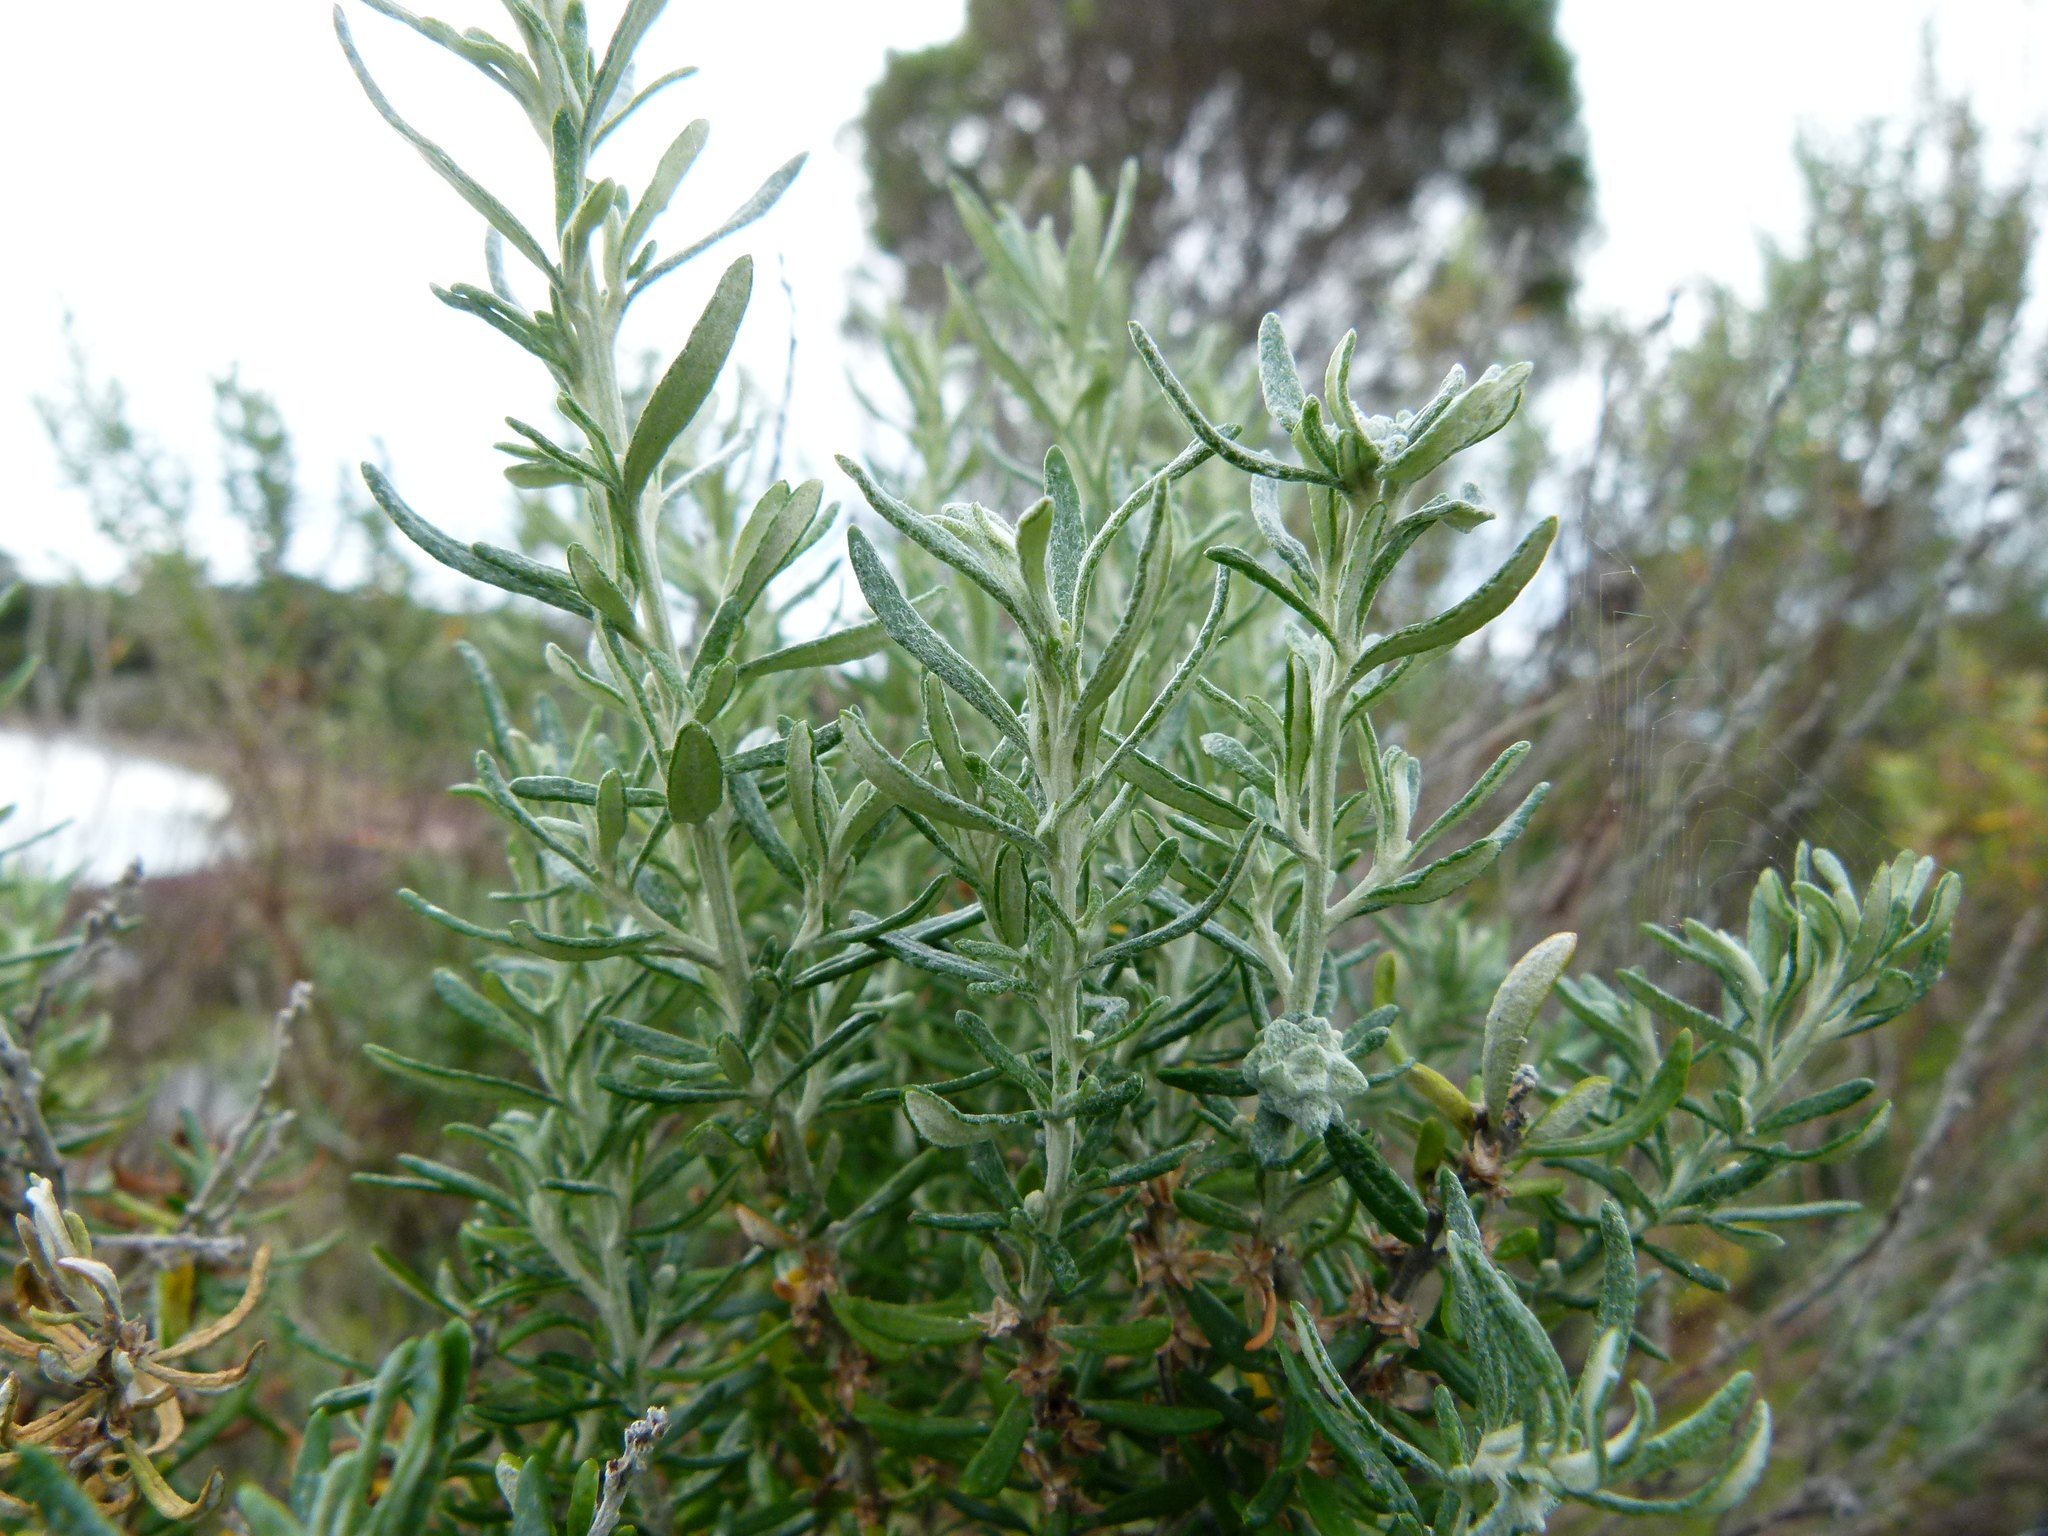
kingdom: Plantae
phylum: Tracheophyta
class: Magnoliopsida
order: Asterales
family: Asteraceae
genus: Olearia
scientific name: Olearia axillaris
